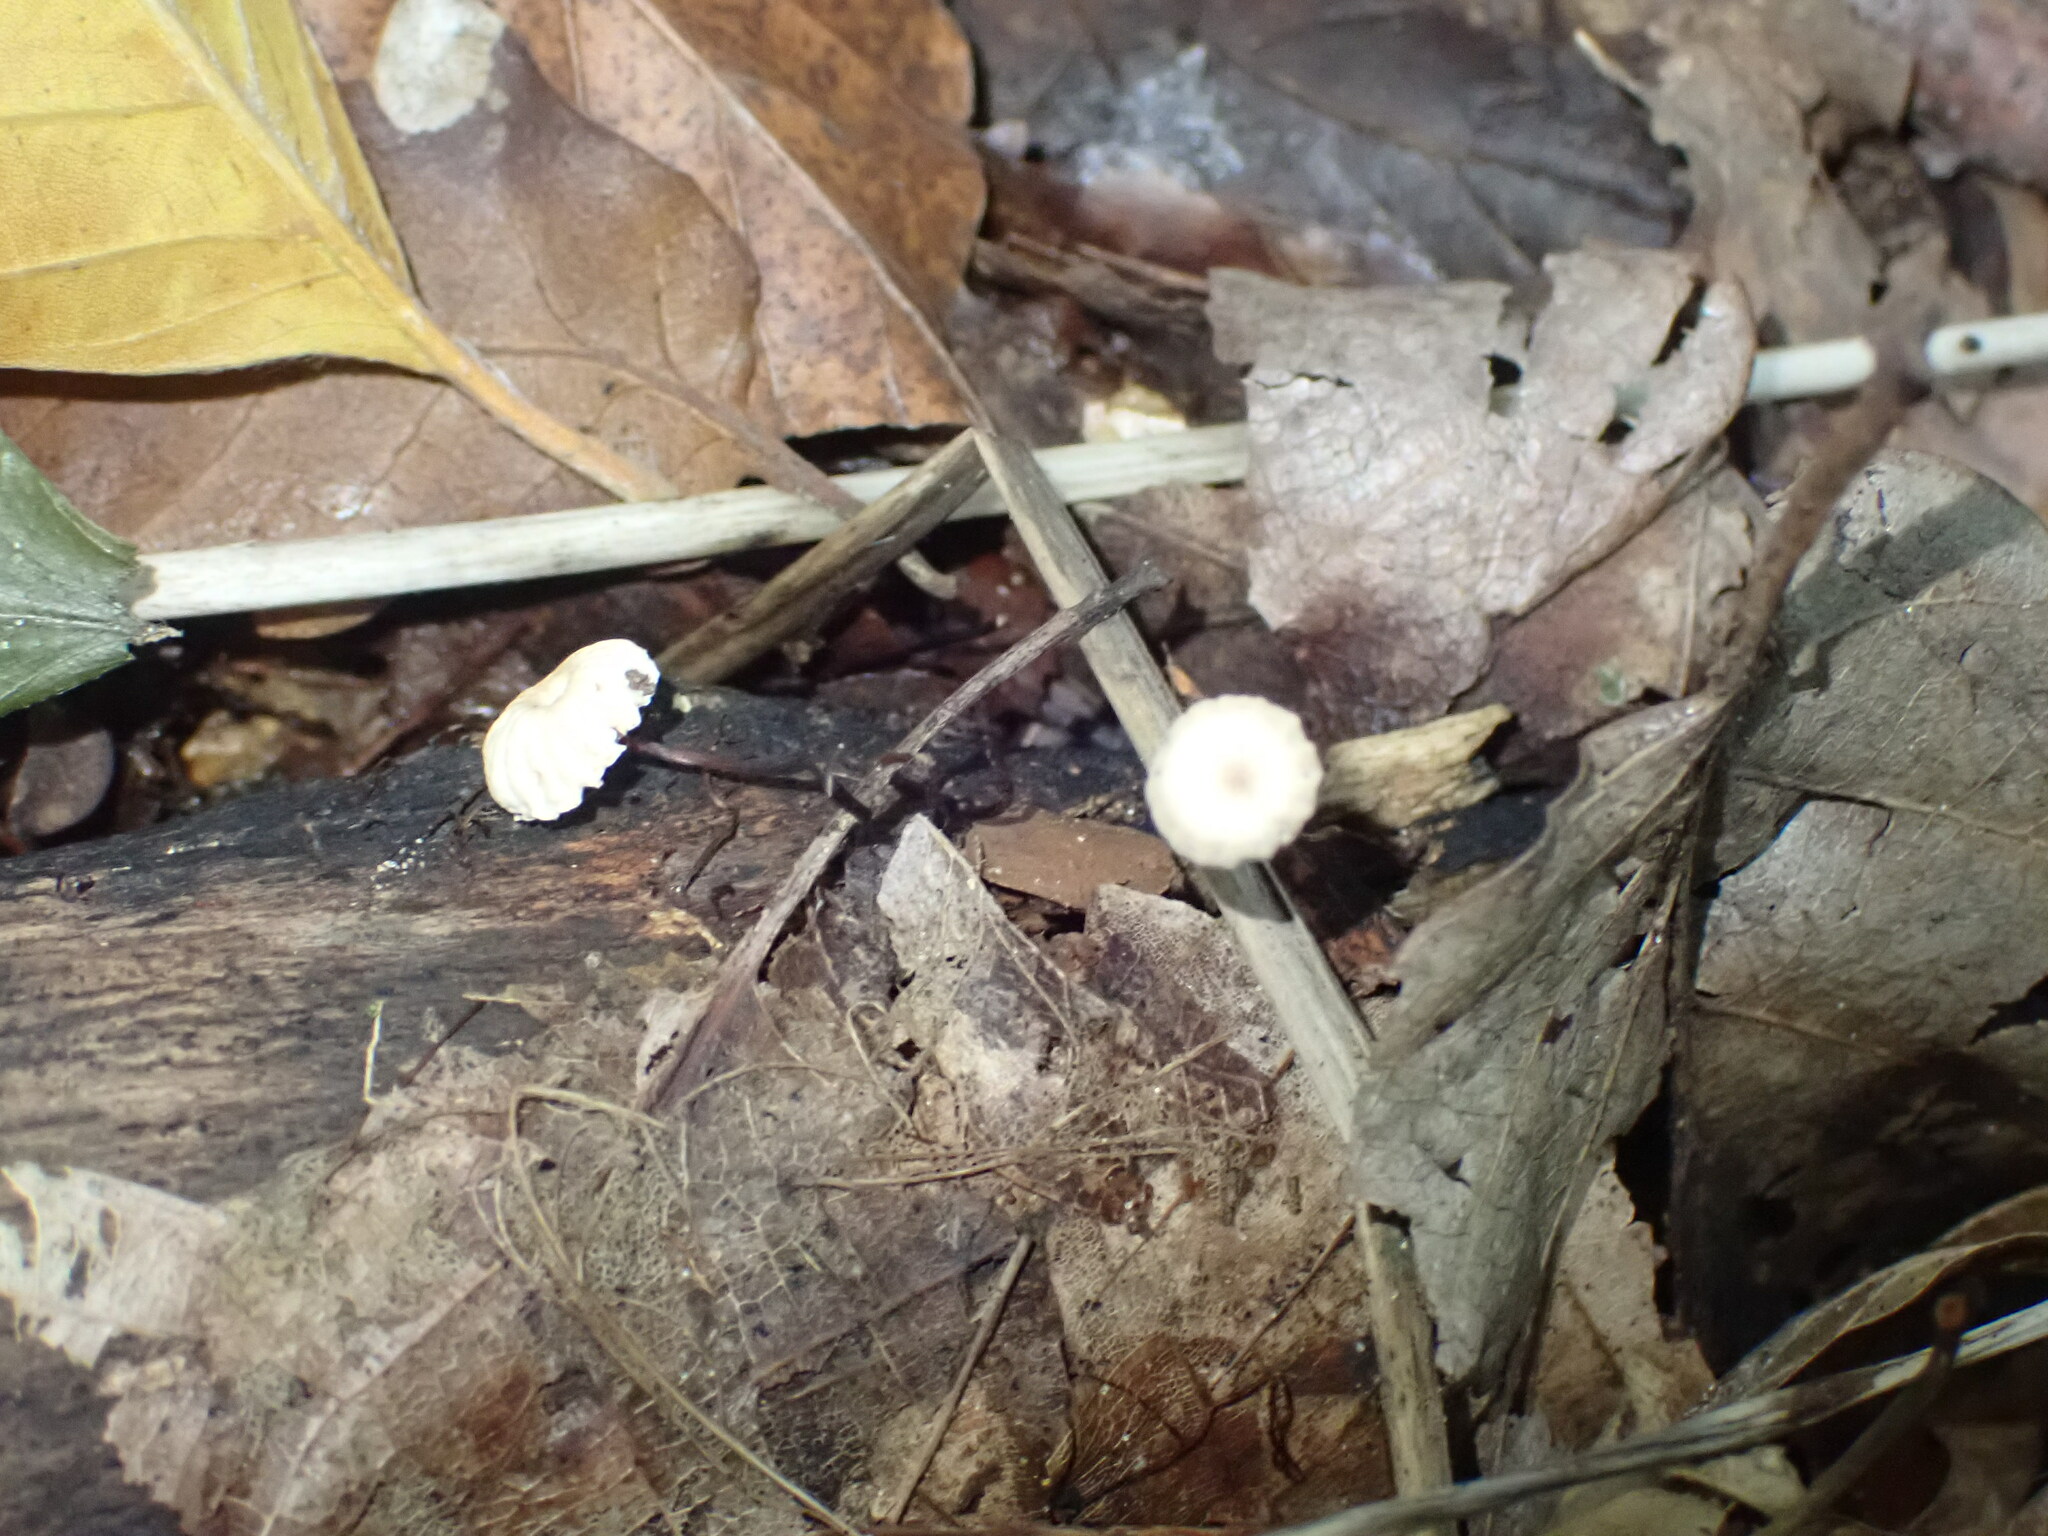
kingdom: Fungi
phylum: Basidiomycota
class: Agaricomycetes
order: Agaricales
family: Marasmiaceae
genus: Marasmius
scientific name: Marasmius rotula
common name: Collared parachute
